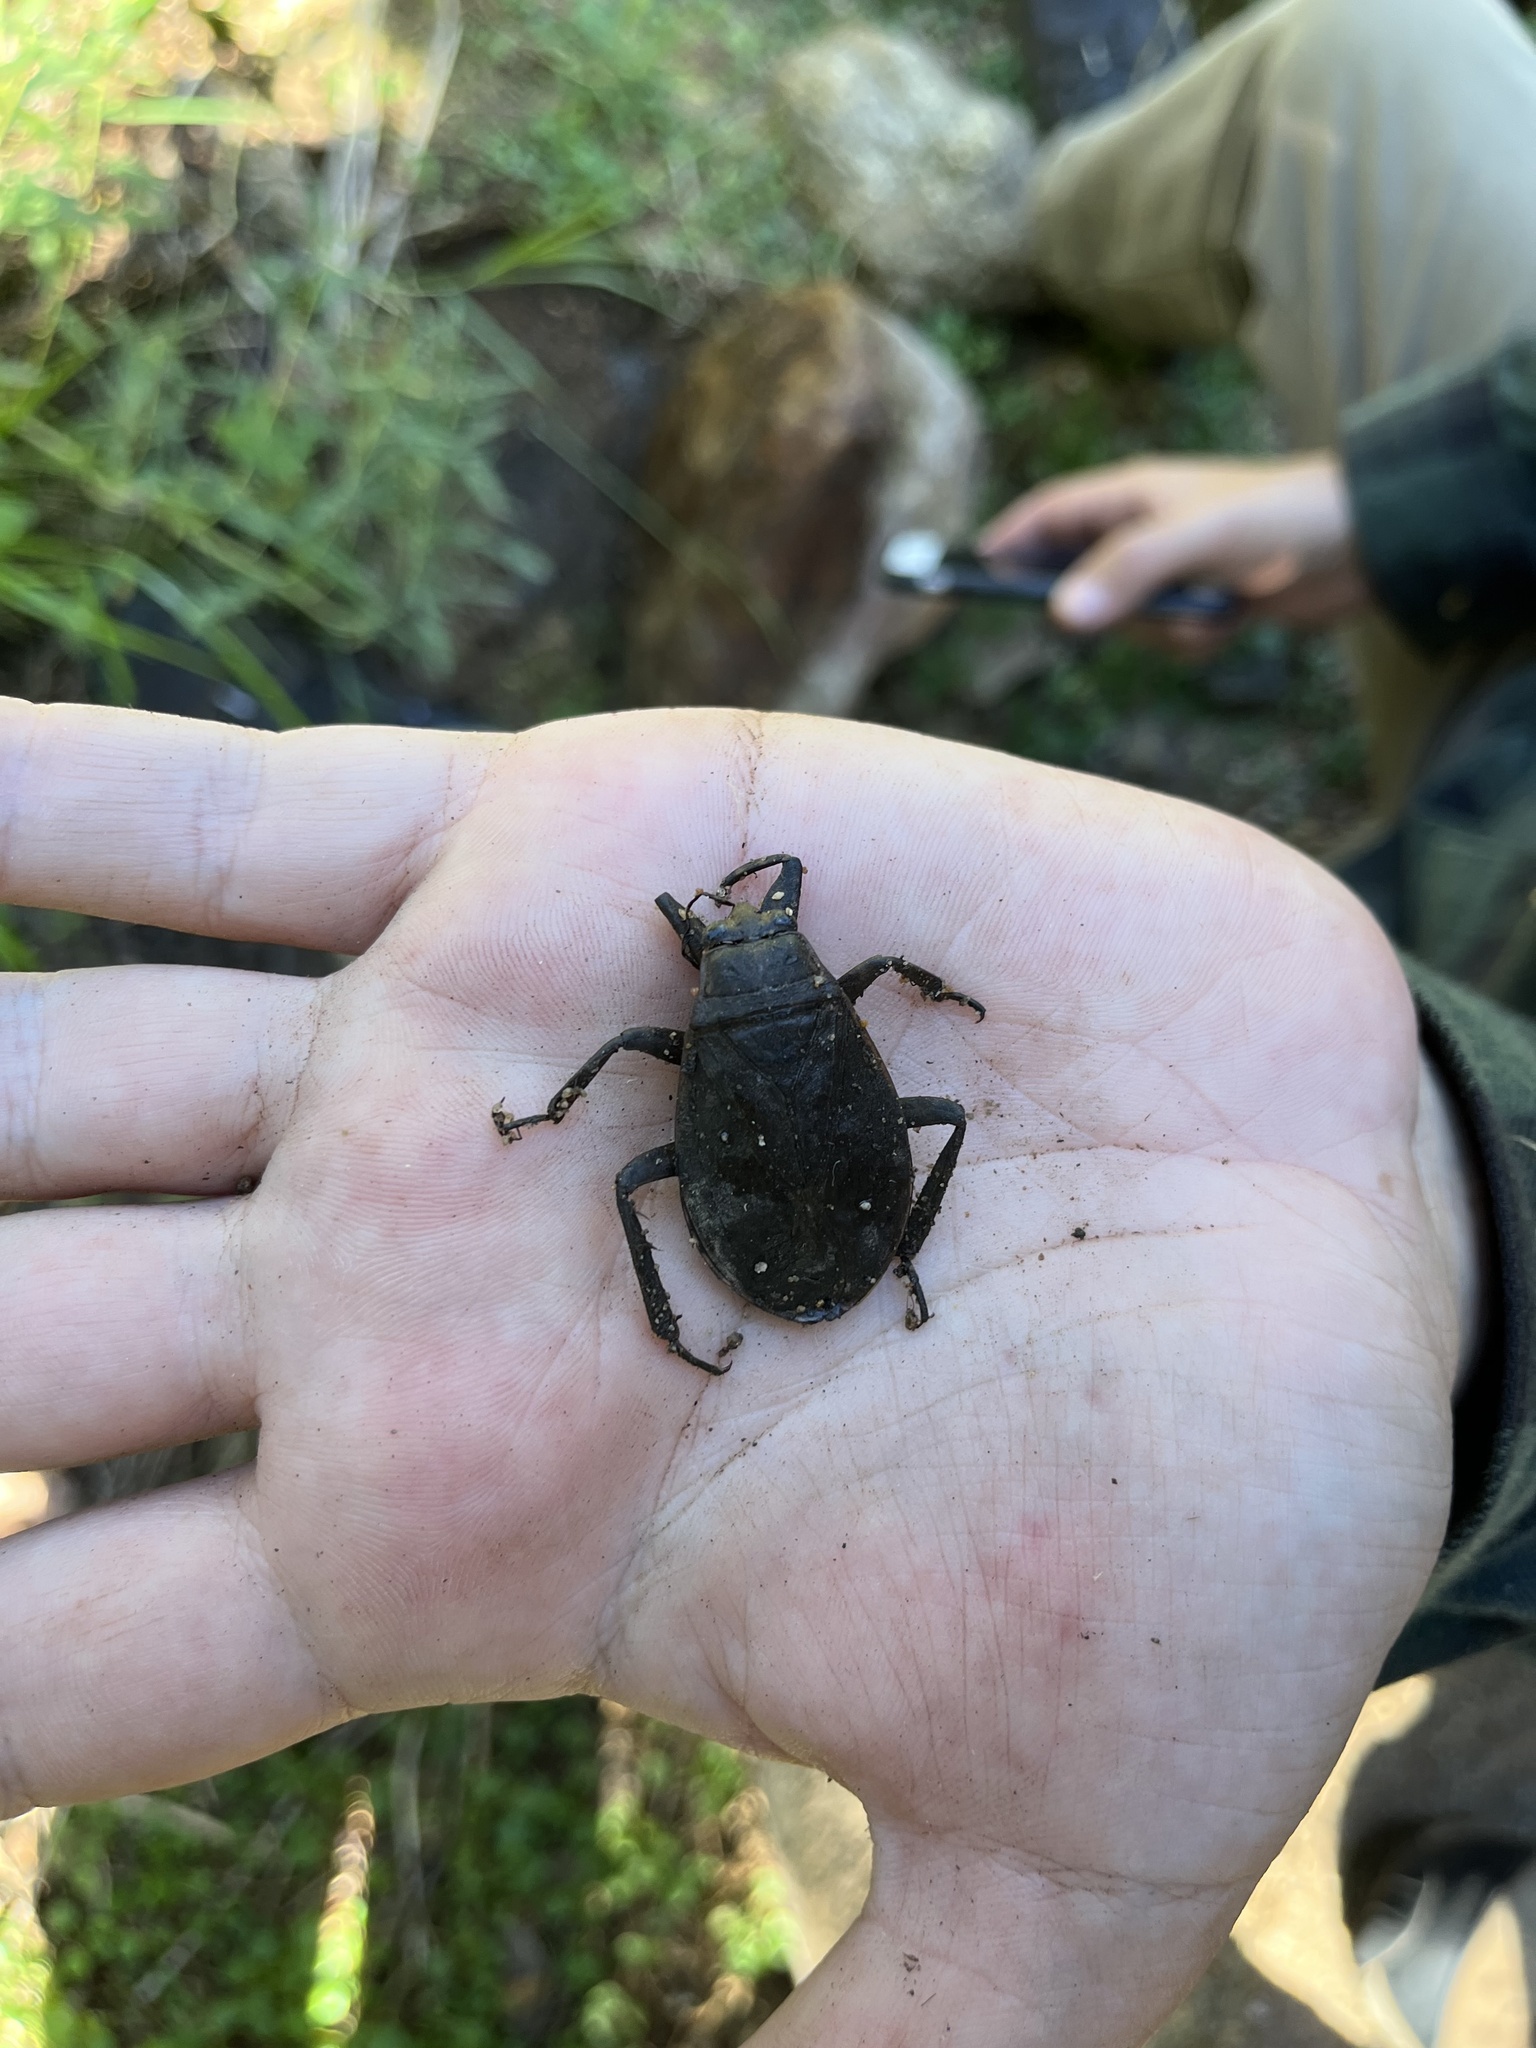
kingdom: Animalia
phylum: Arthropoda
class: Insecta
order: Hemiptera
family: Belostomatidae
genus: Abedus
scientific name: Abedus indentatus
